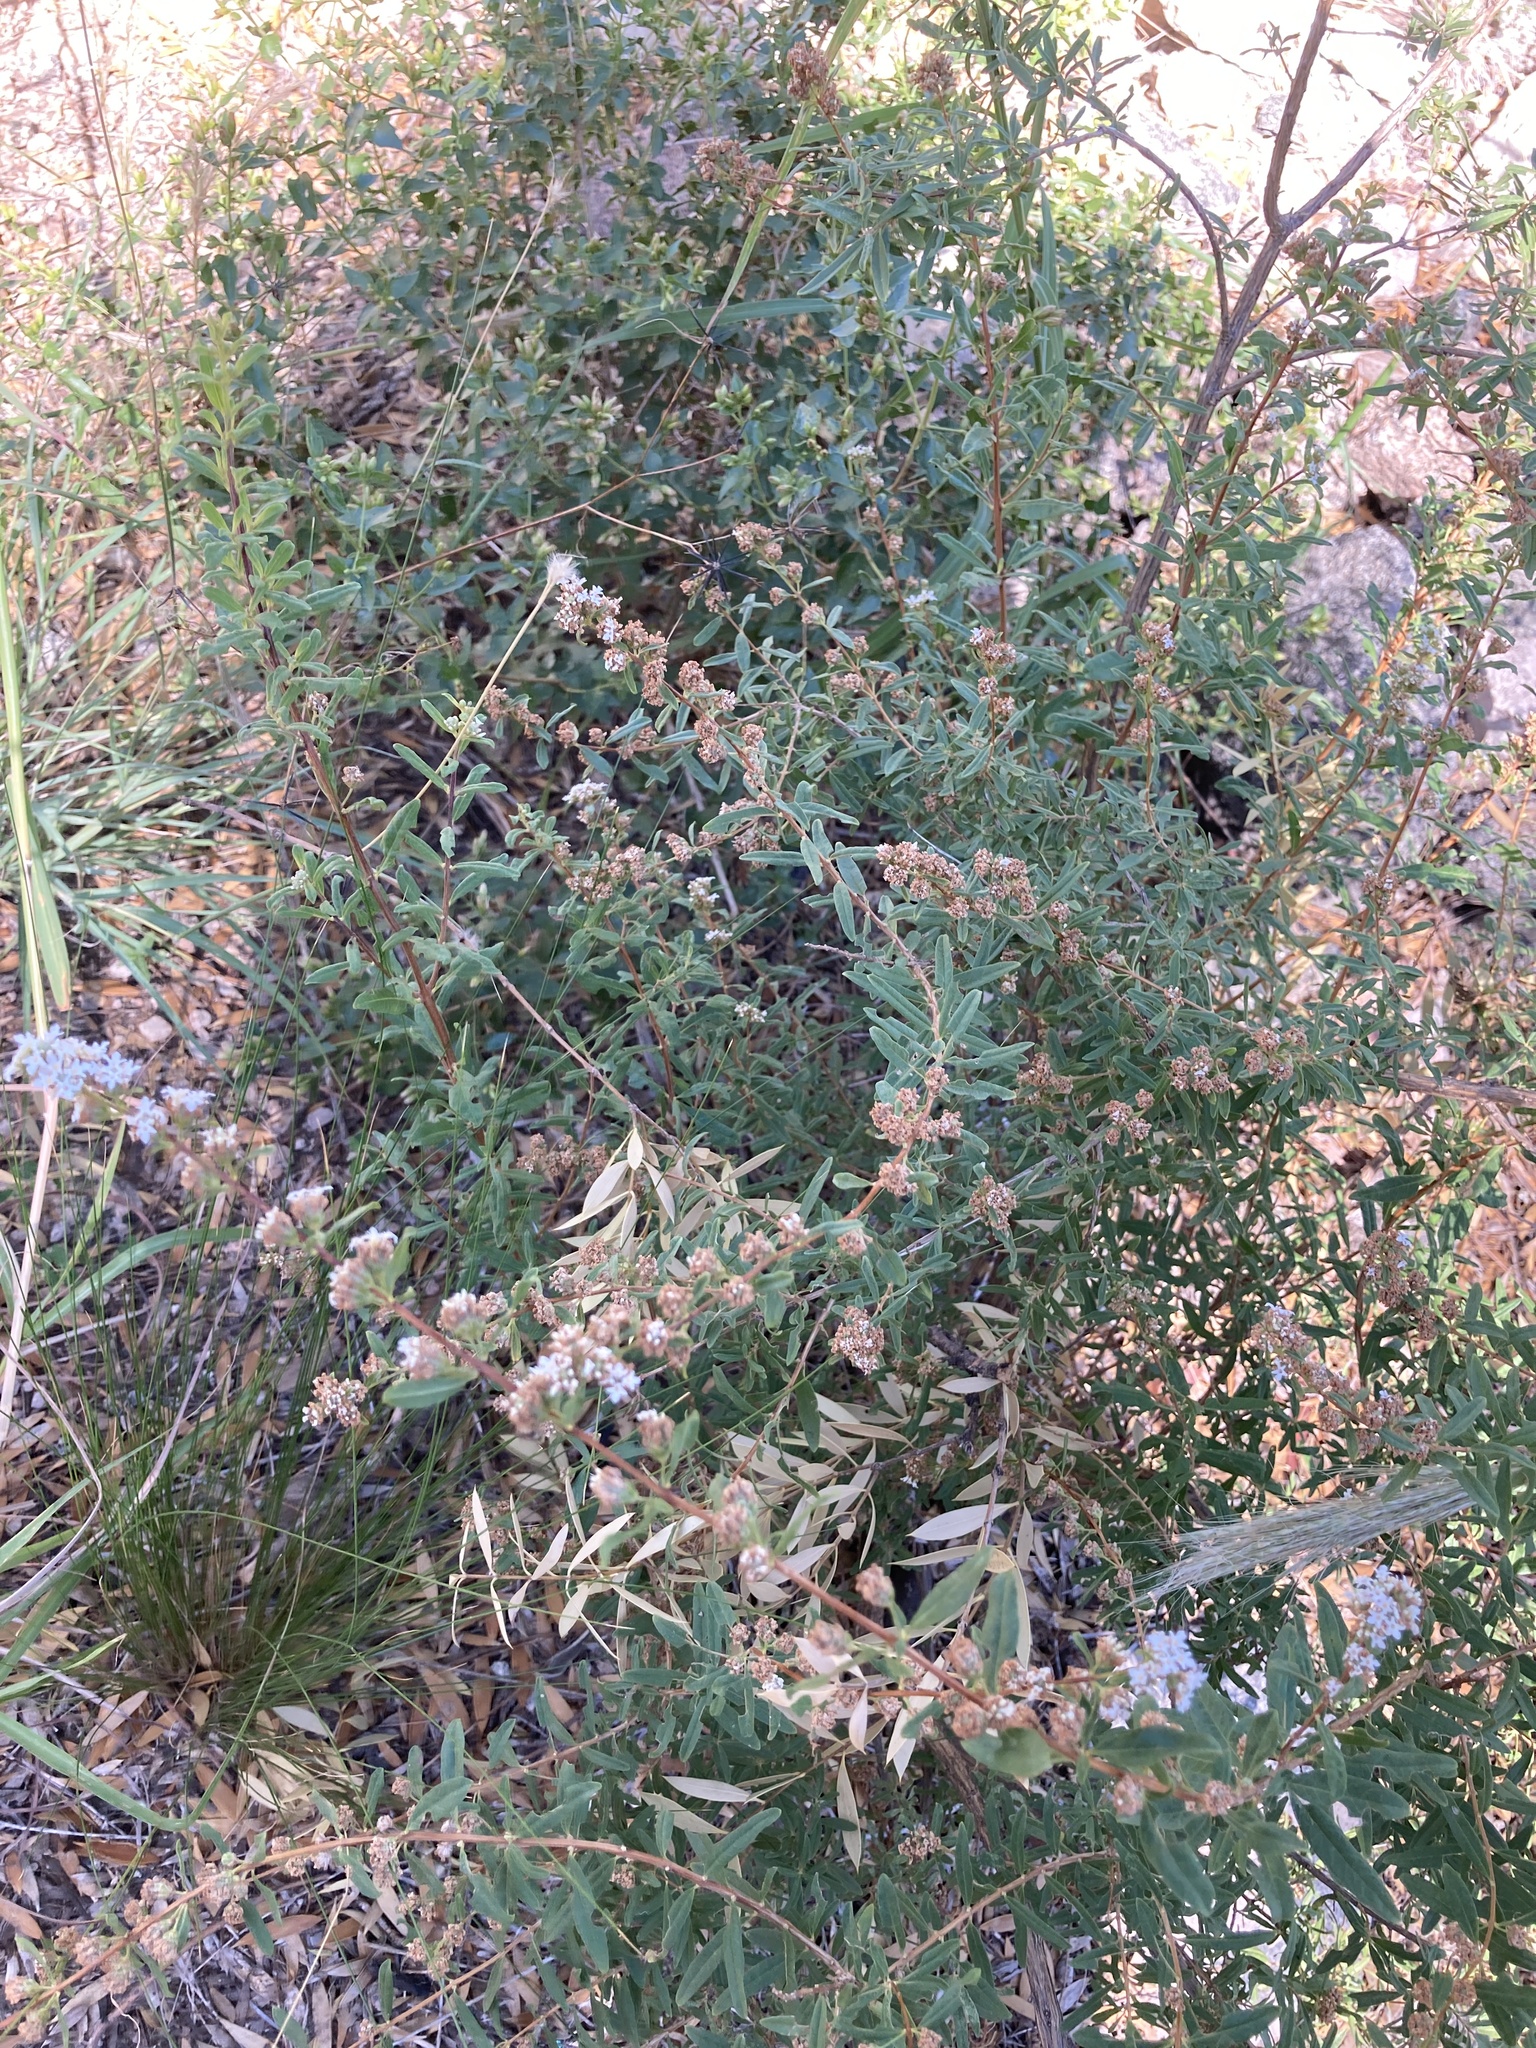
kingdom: Plantae
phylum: Tracheophyta
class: Magnoliopsida
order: Lamiales
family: Verbenaceae
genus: Lippia
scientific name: Lippia integrifolia
